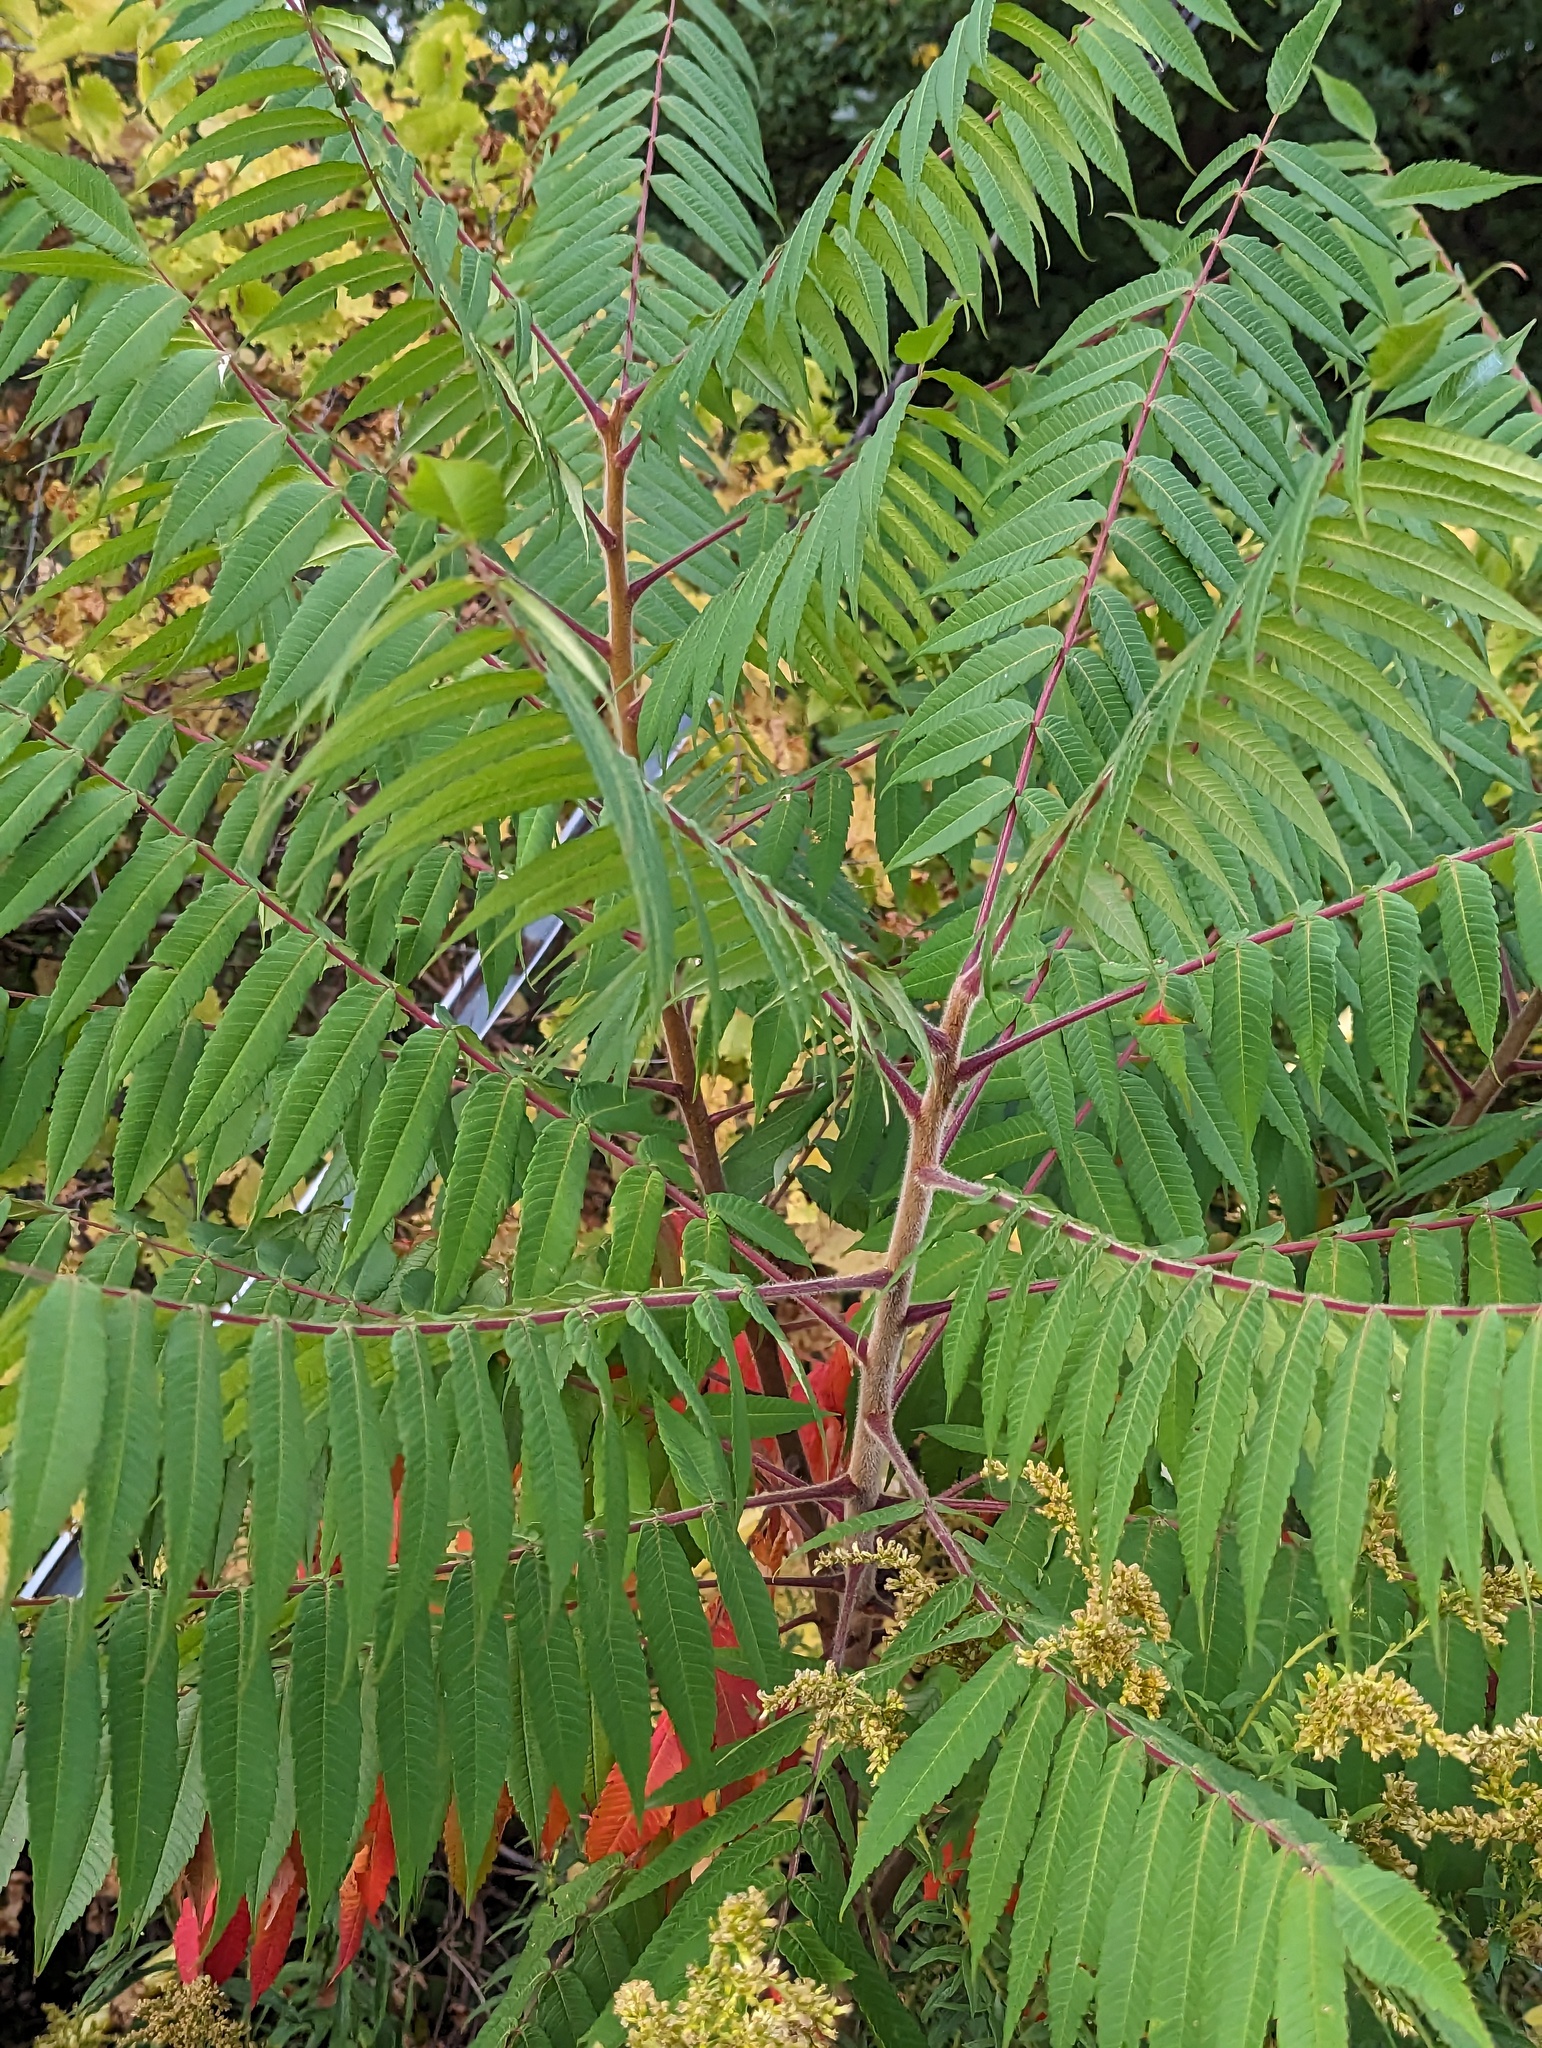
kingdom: Plantae
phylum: Tracheophyta
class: Magnoliopsida
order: Sapindales
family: Anacardiaceae
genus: Rhus
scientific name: Rhus typhina
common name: Staghorn sumac
